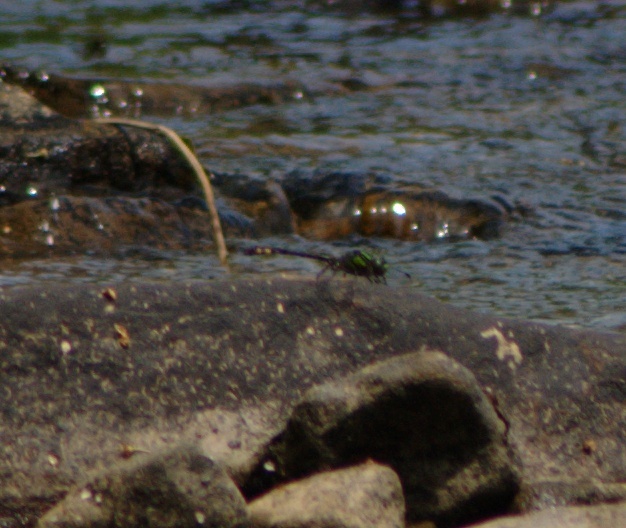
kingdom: Animalia
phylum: Arthropoda
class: Insecta
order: Odonata
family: Gomphidae
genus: Ophiogomphus
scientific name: Ophiogomphus mainensis
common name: Maine snaketail
